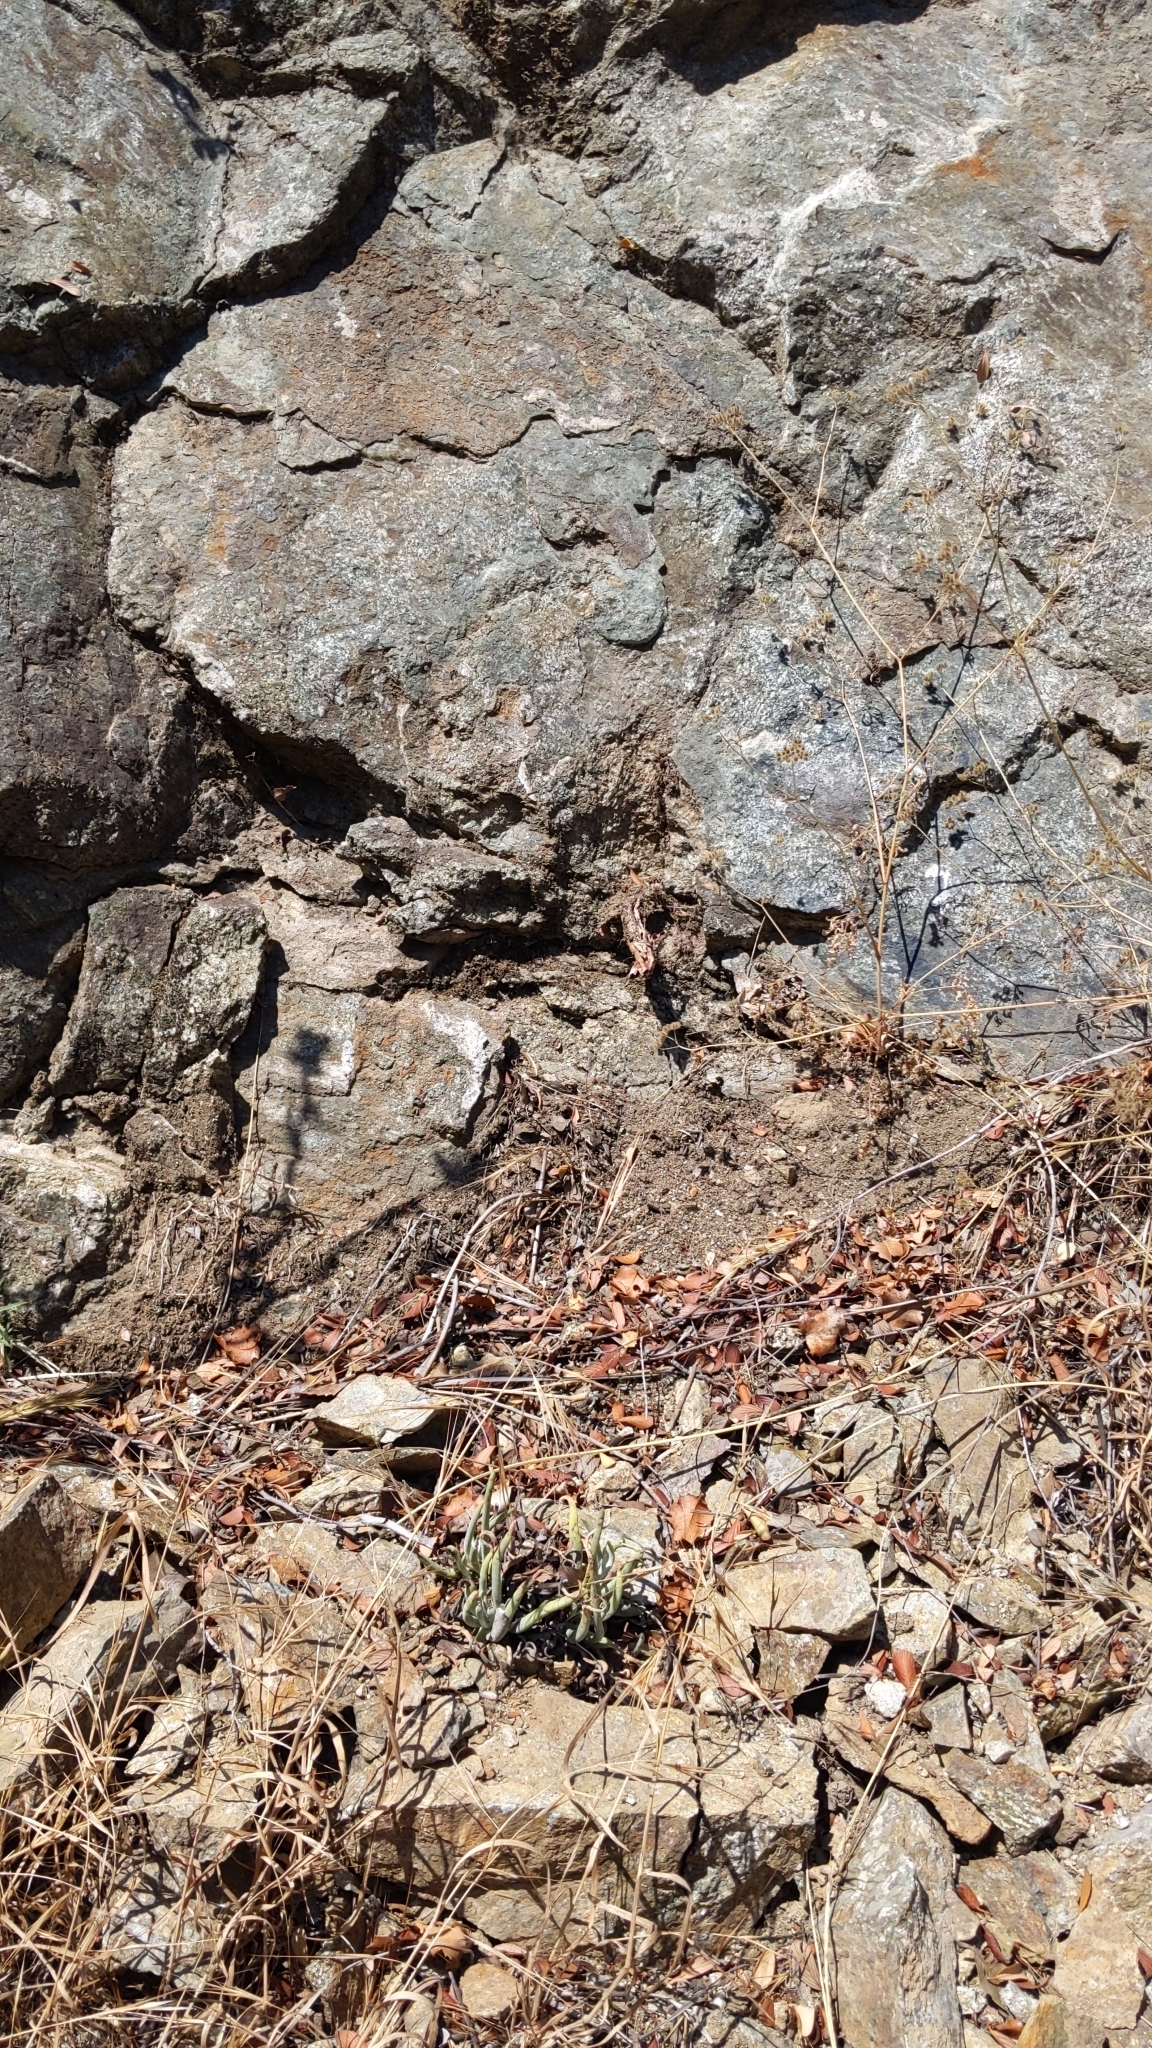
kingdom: Plantae
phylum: Tracheophyta
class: Magnoliopsida
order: Saxifragales
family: Crassulaceae
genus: Dudleya
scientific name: Dudleya densiflora
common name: San gabriel mountains dudleya
